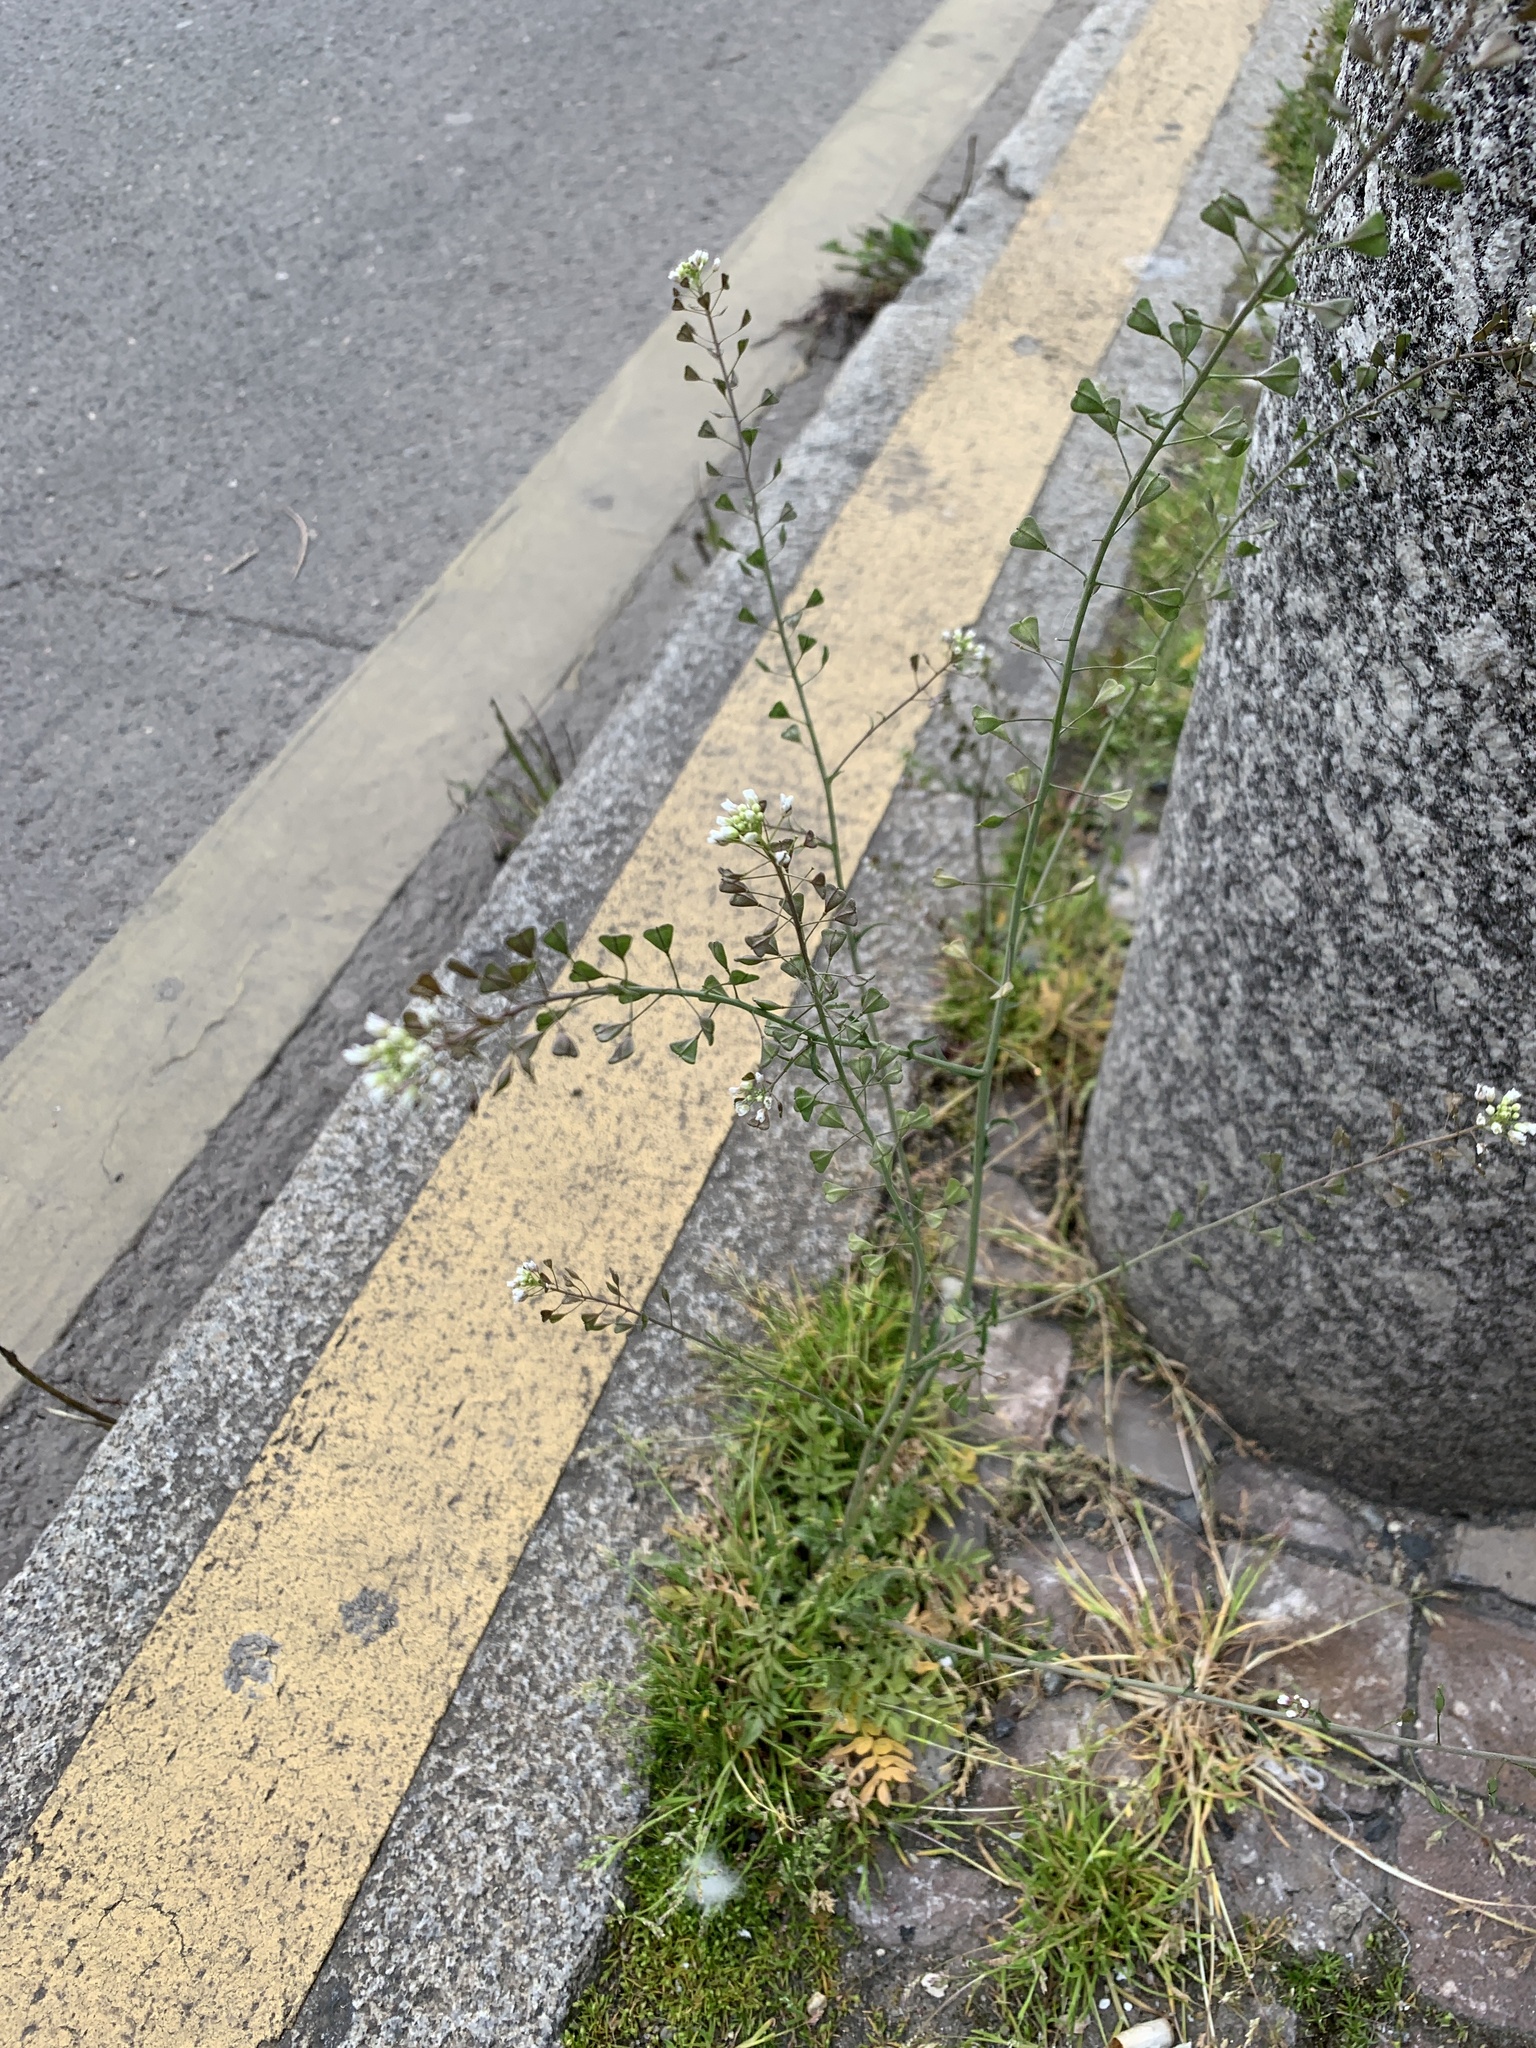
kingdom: Plantae
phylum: Tracheophyta
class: Magnoliopsida
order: Brassicales
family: Brassicaceae
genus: Capsella
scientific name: Capsella bursa-pastoris
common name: Shepherd's purse
